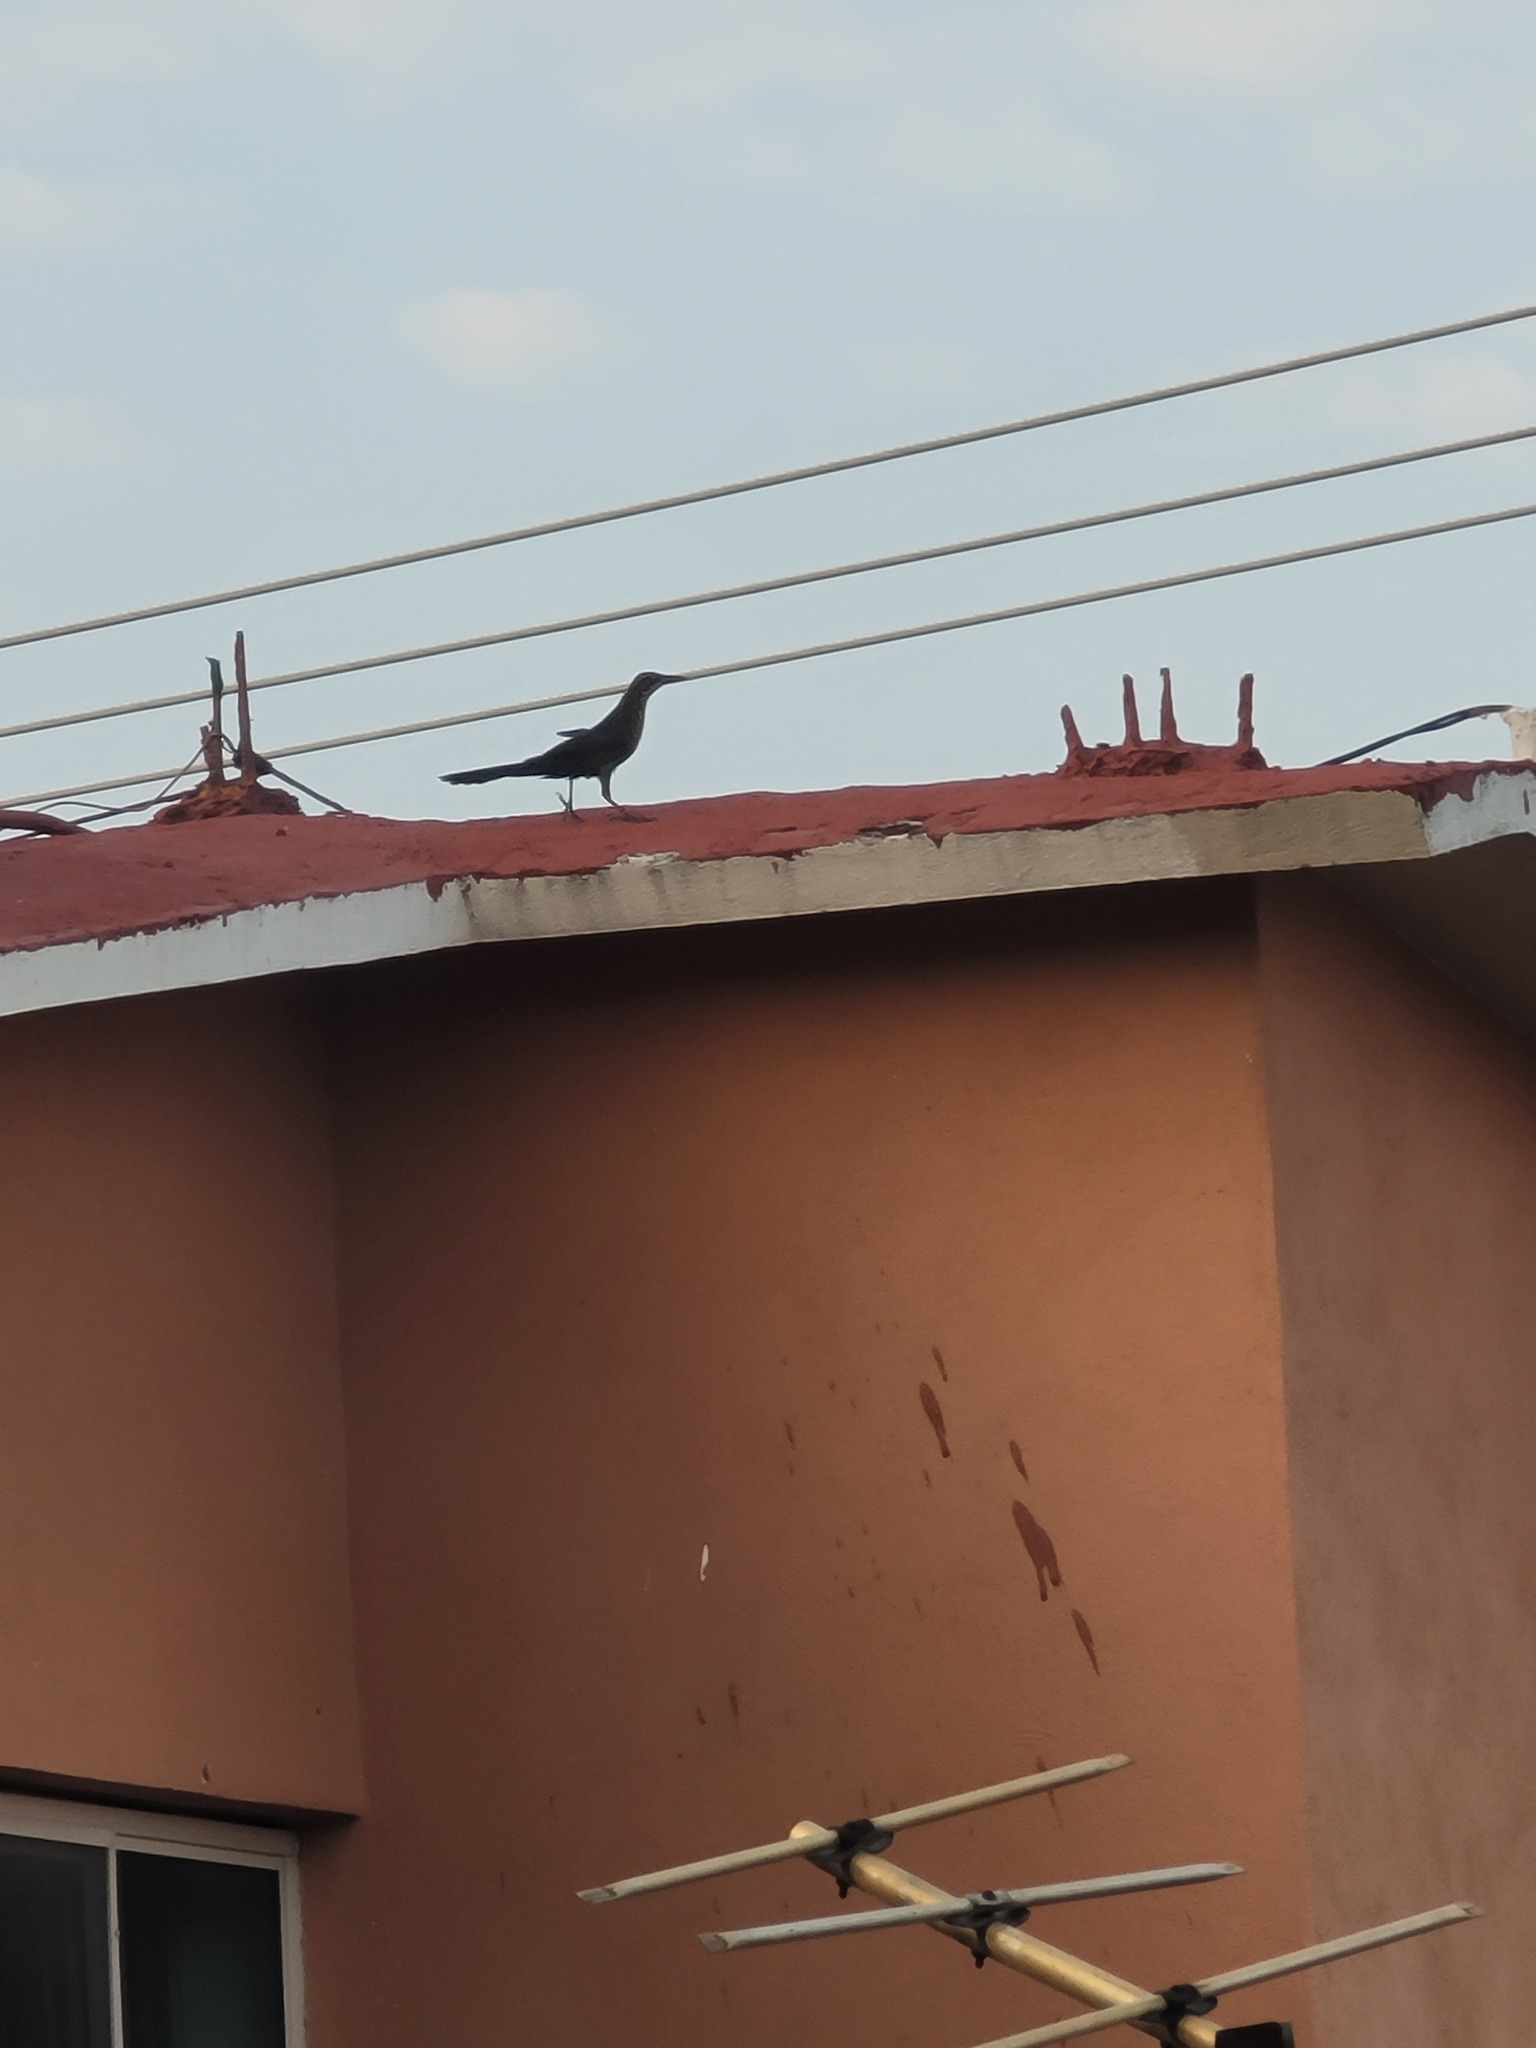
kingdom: Animalia
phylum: Chordata
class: Aves
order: Passeriformes
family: Icteridae
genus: Quiscalus
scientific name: Quiscalus mexicanus
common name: Great-tailed grackle
